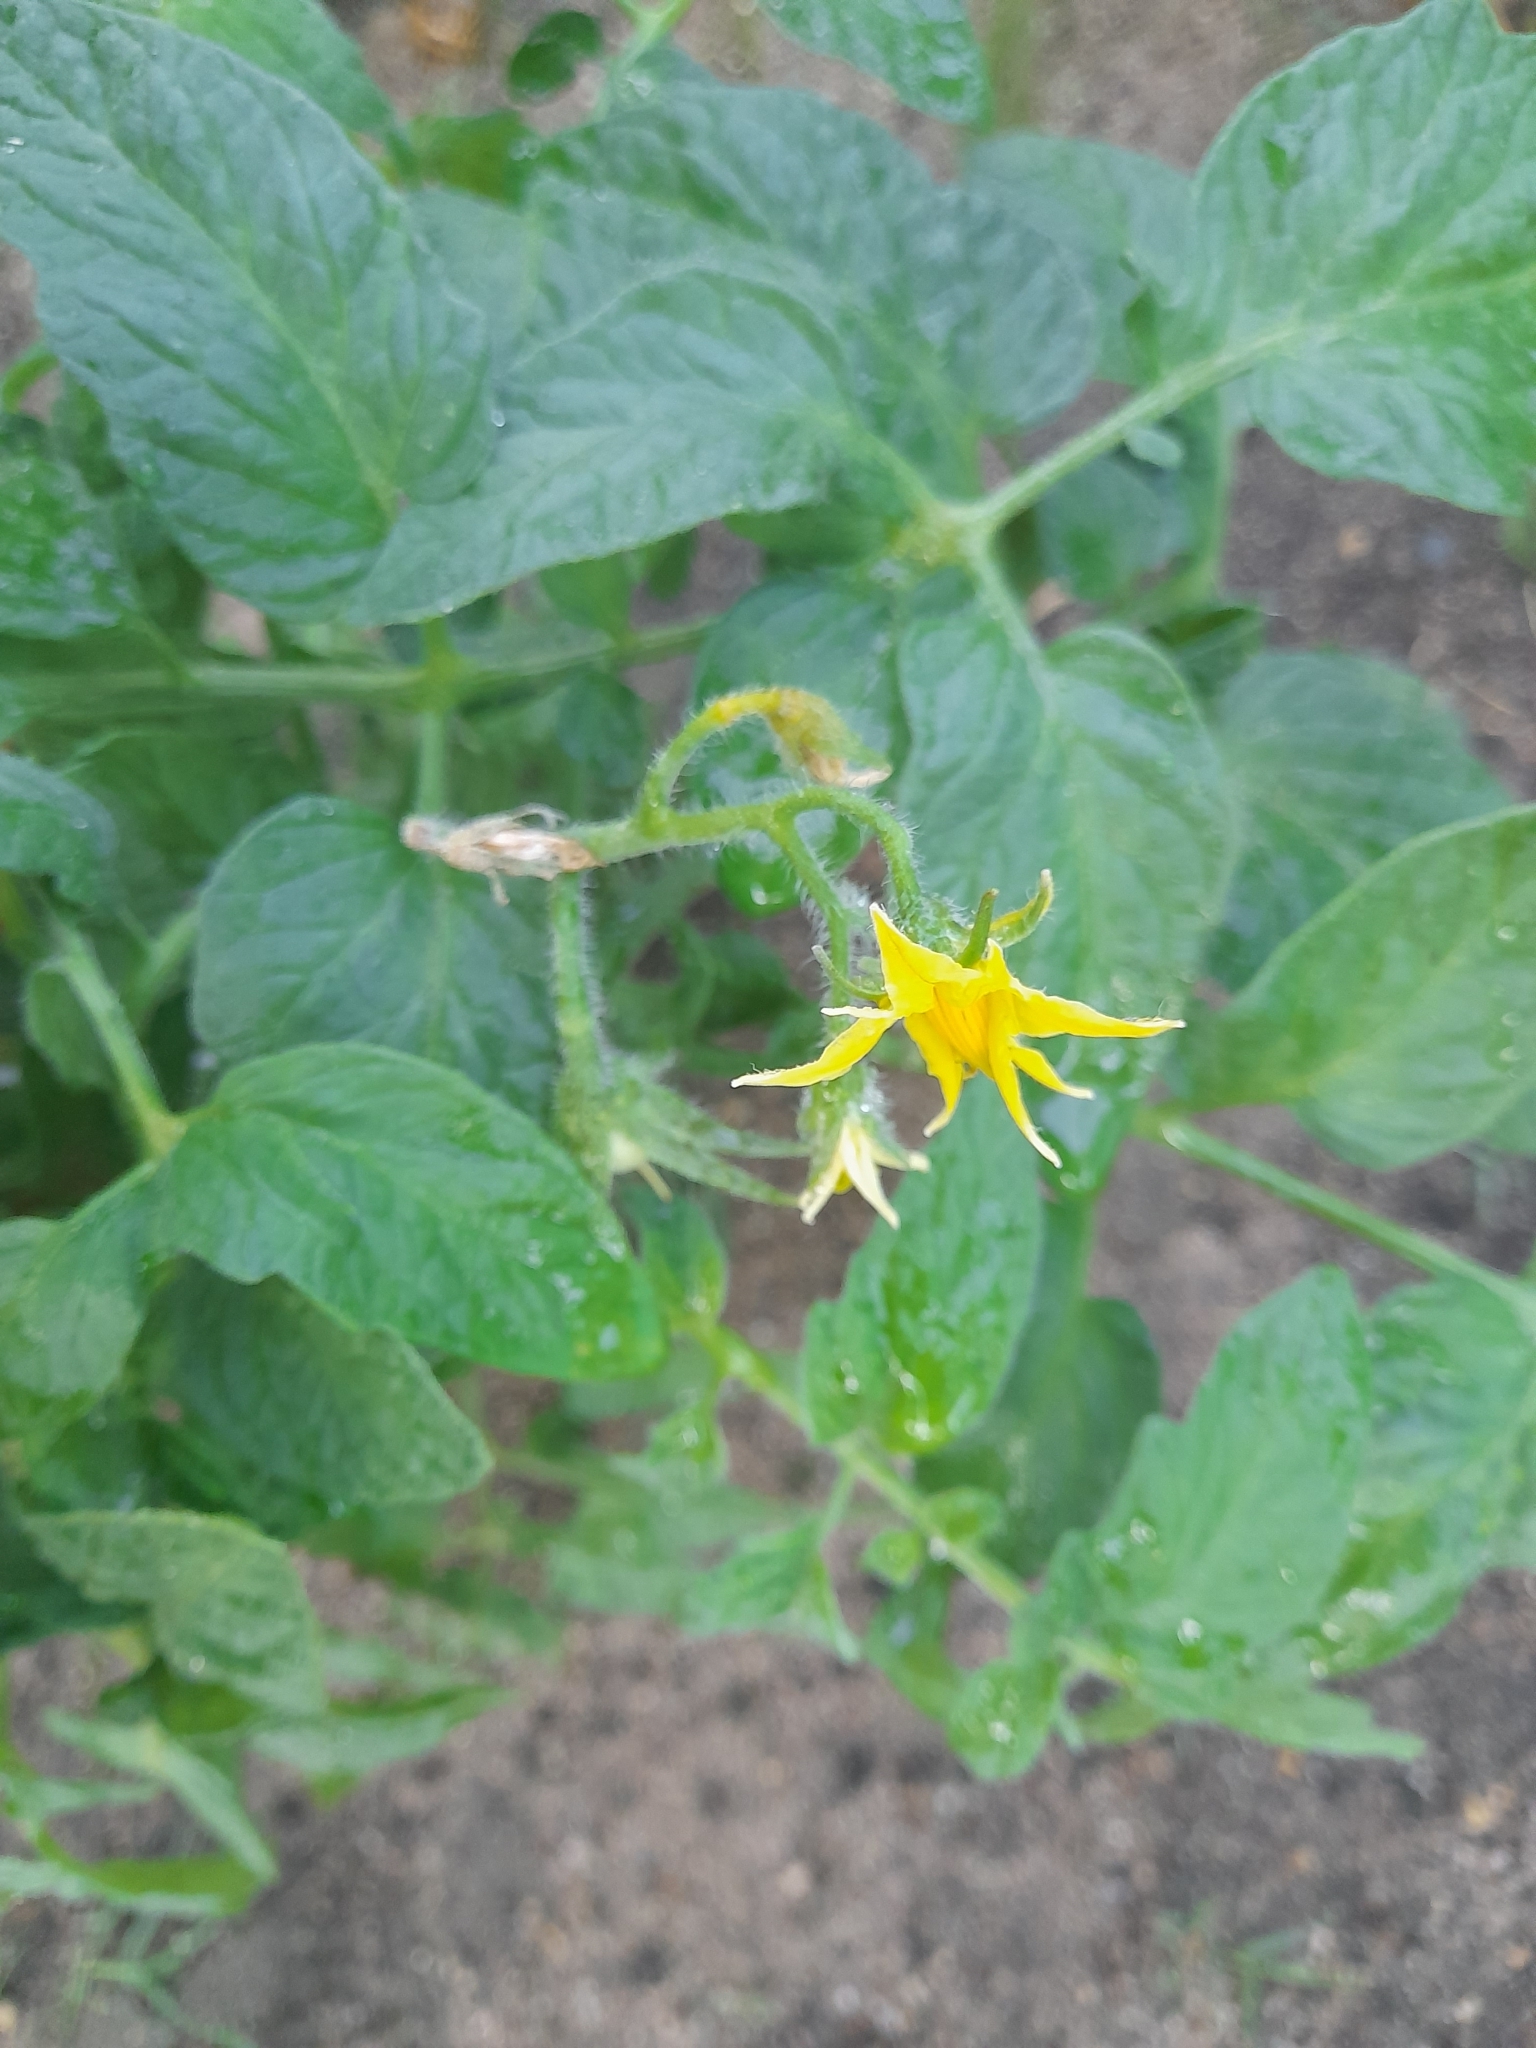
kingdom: Plantae
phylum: Tracheophyta
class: Magnoliopsida
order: Solanales
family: Solanaceae
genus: Solanum
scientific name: Solanum lycopersicum
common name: Garden tomato
